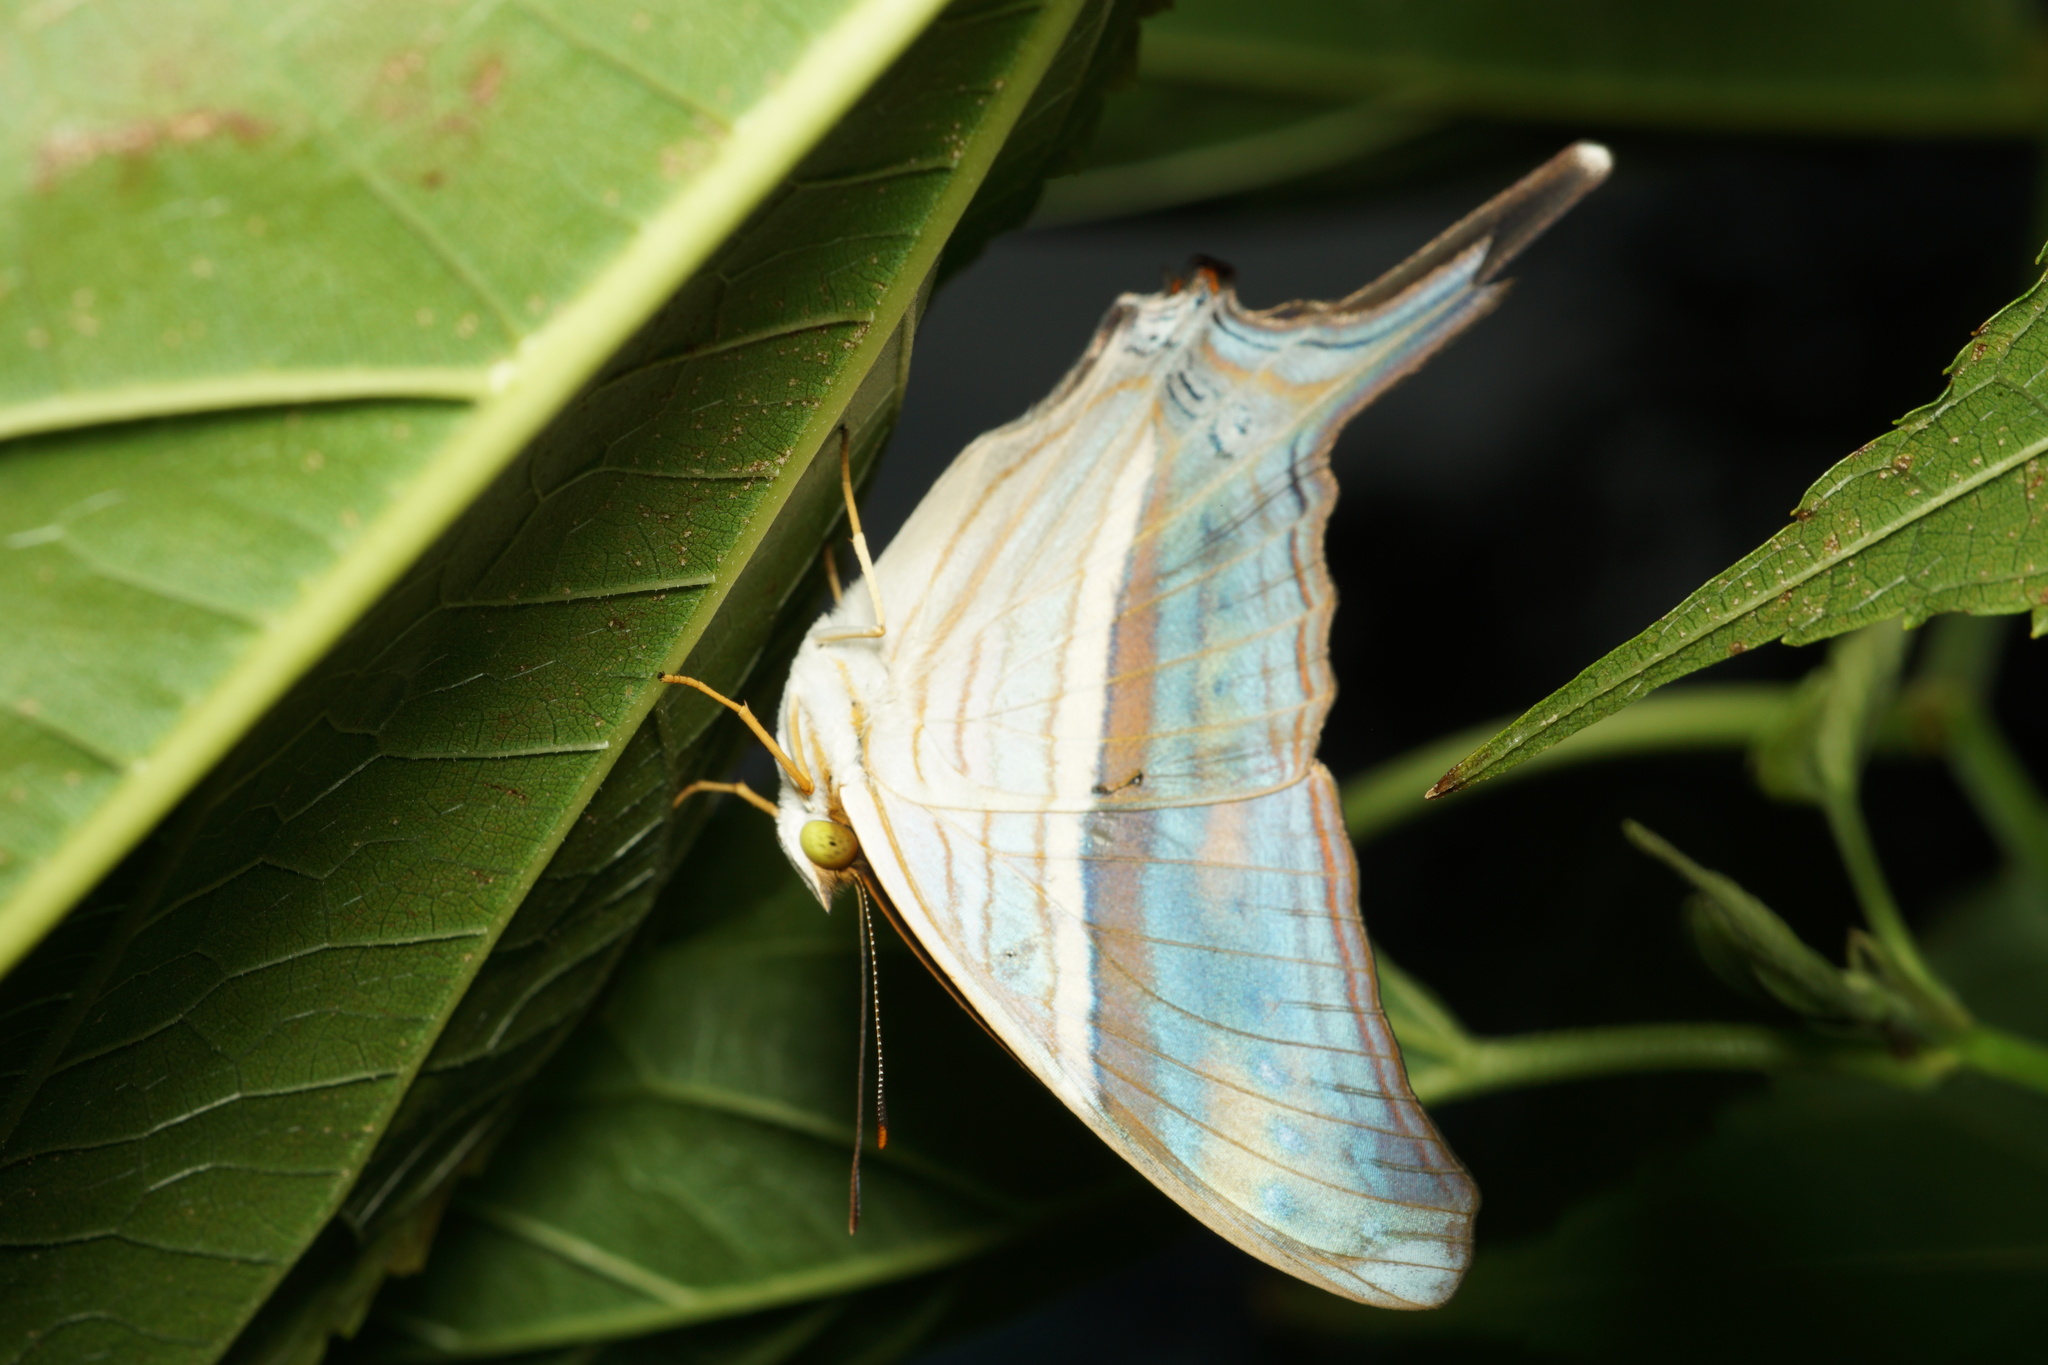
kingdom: Animalia
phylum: Arthropoda
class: Insecta
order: Lepidoptera
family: Nymphalidae
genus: Marpesia
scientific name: Marpesia chiron
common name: Many-banded daggerwing
